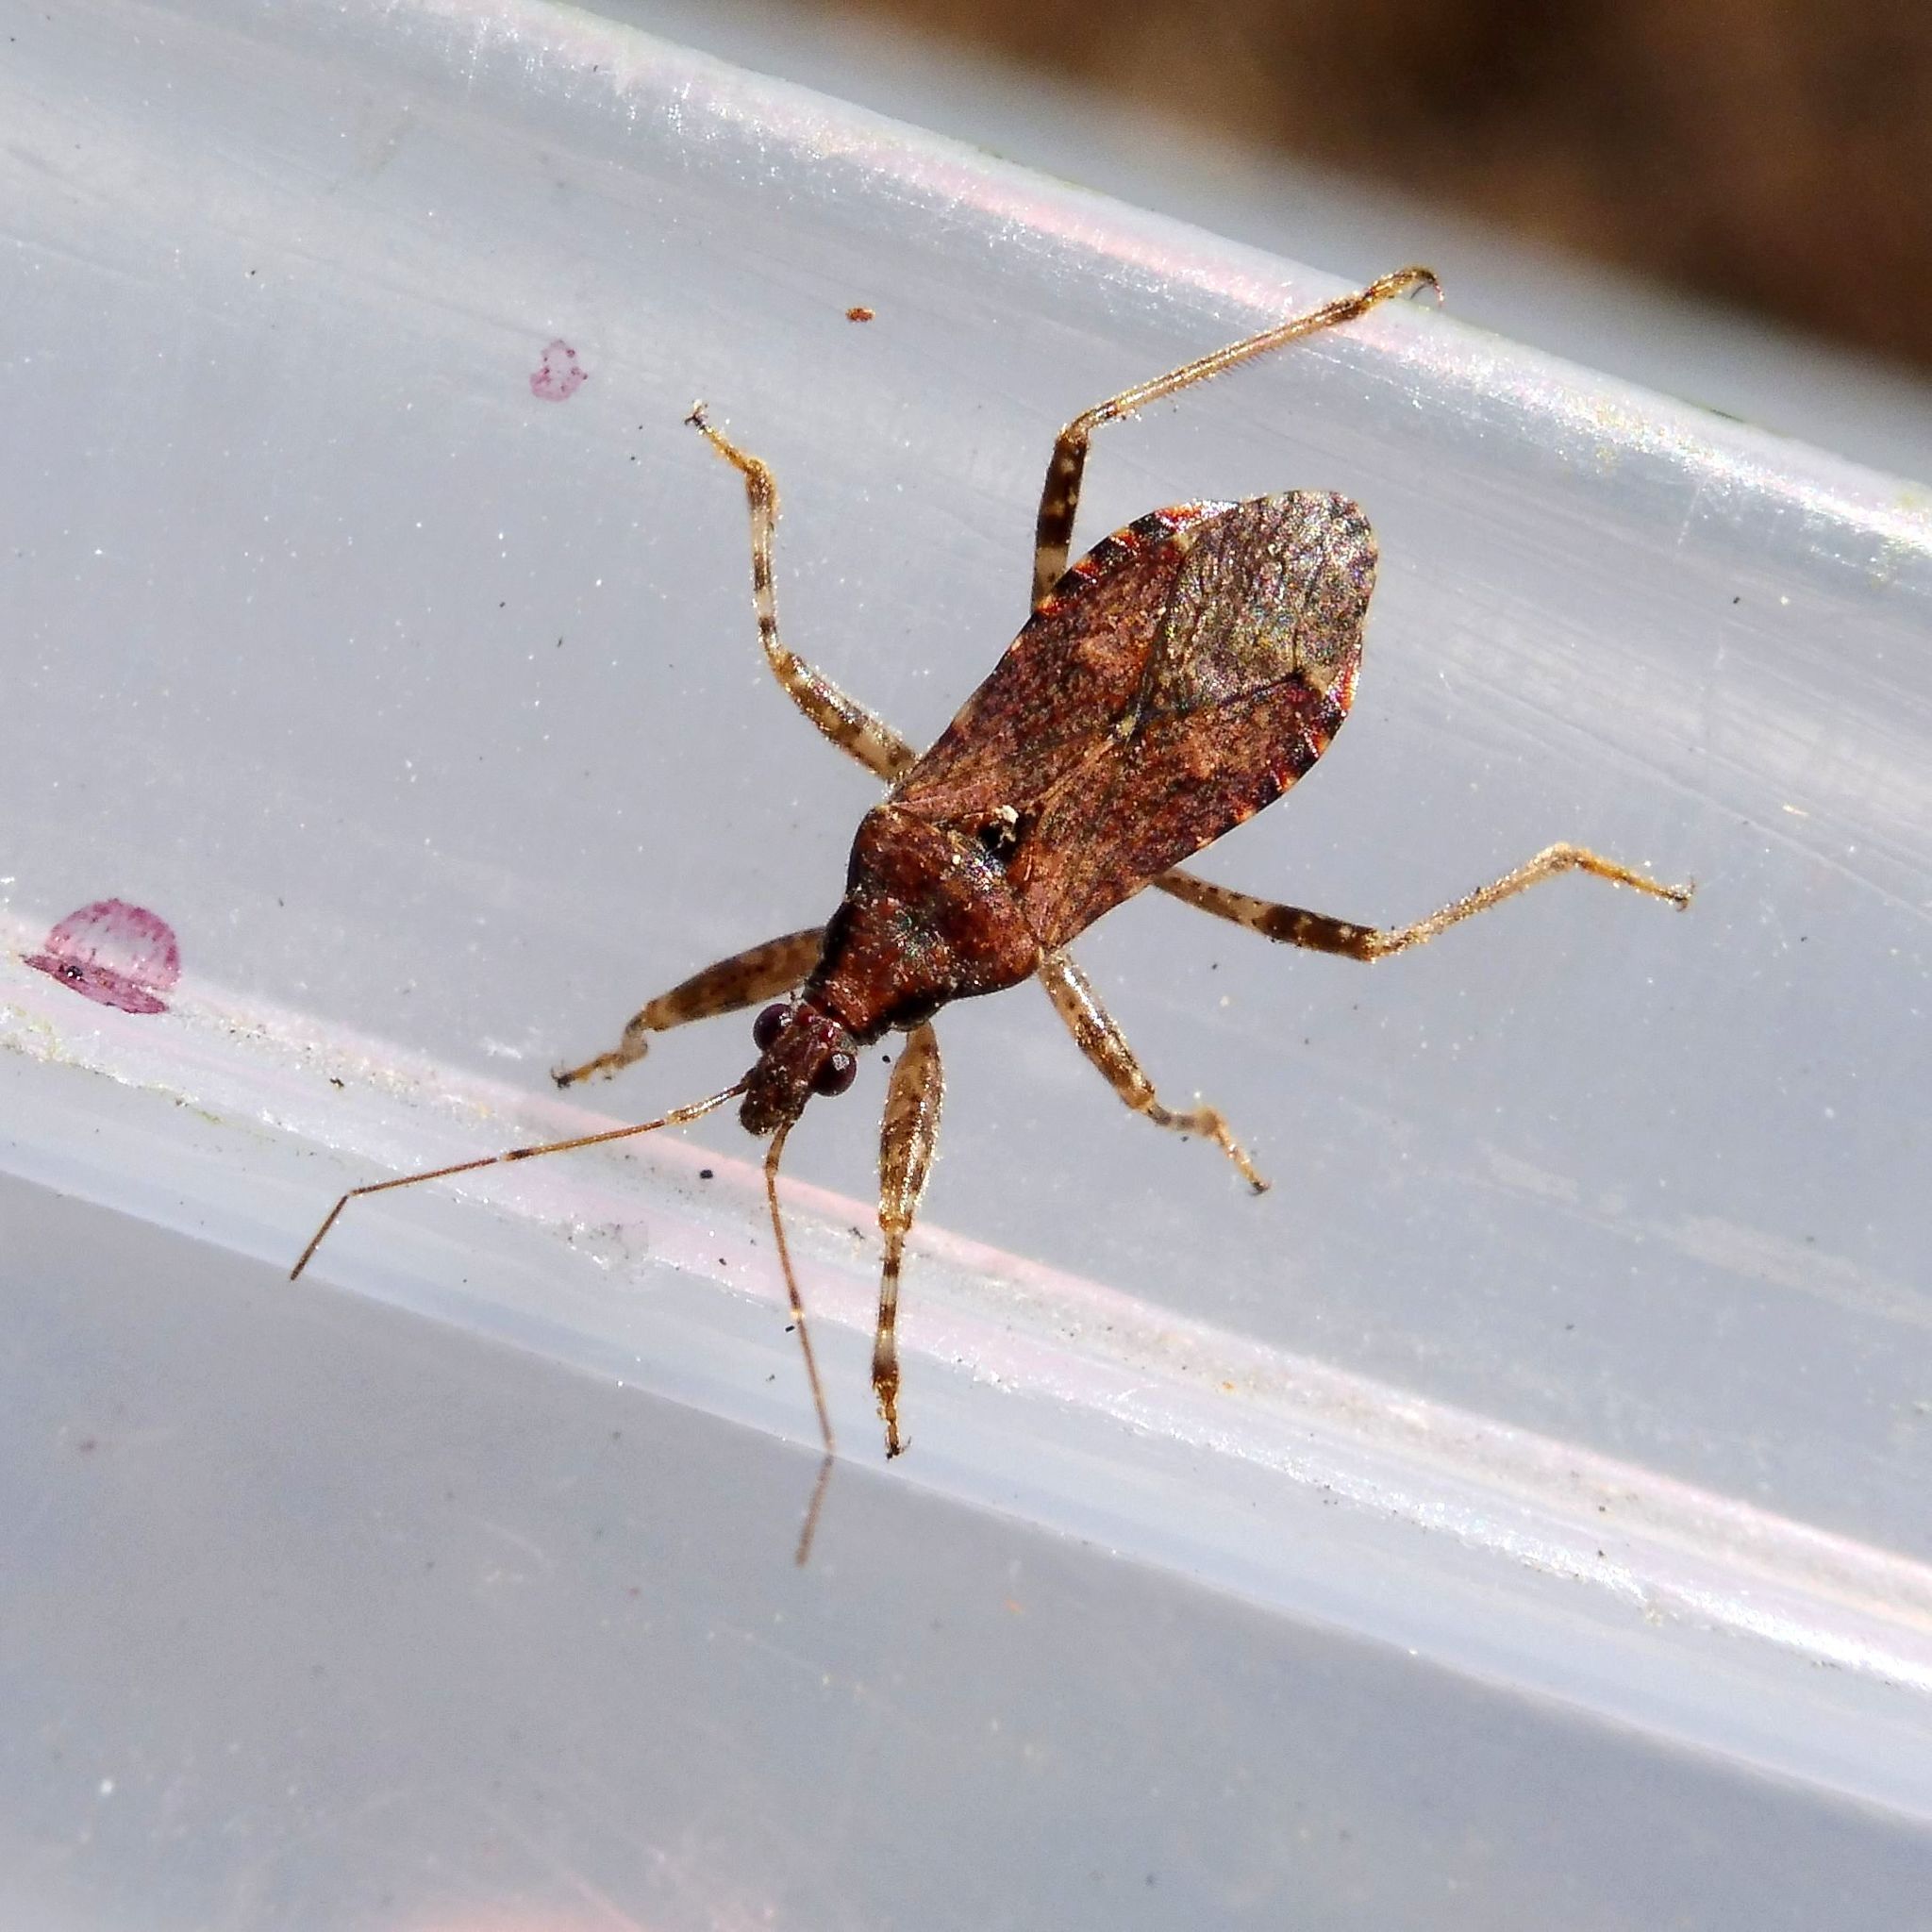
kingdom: Animalia
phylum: Arthropoda
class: Insecta
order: Hemiptera
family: Nabidae
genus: Himacerus
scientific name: Himacerus mirmicoides
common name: Ant damsel bug
